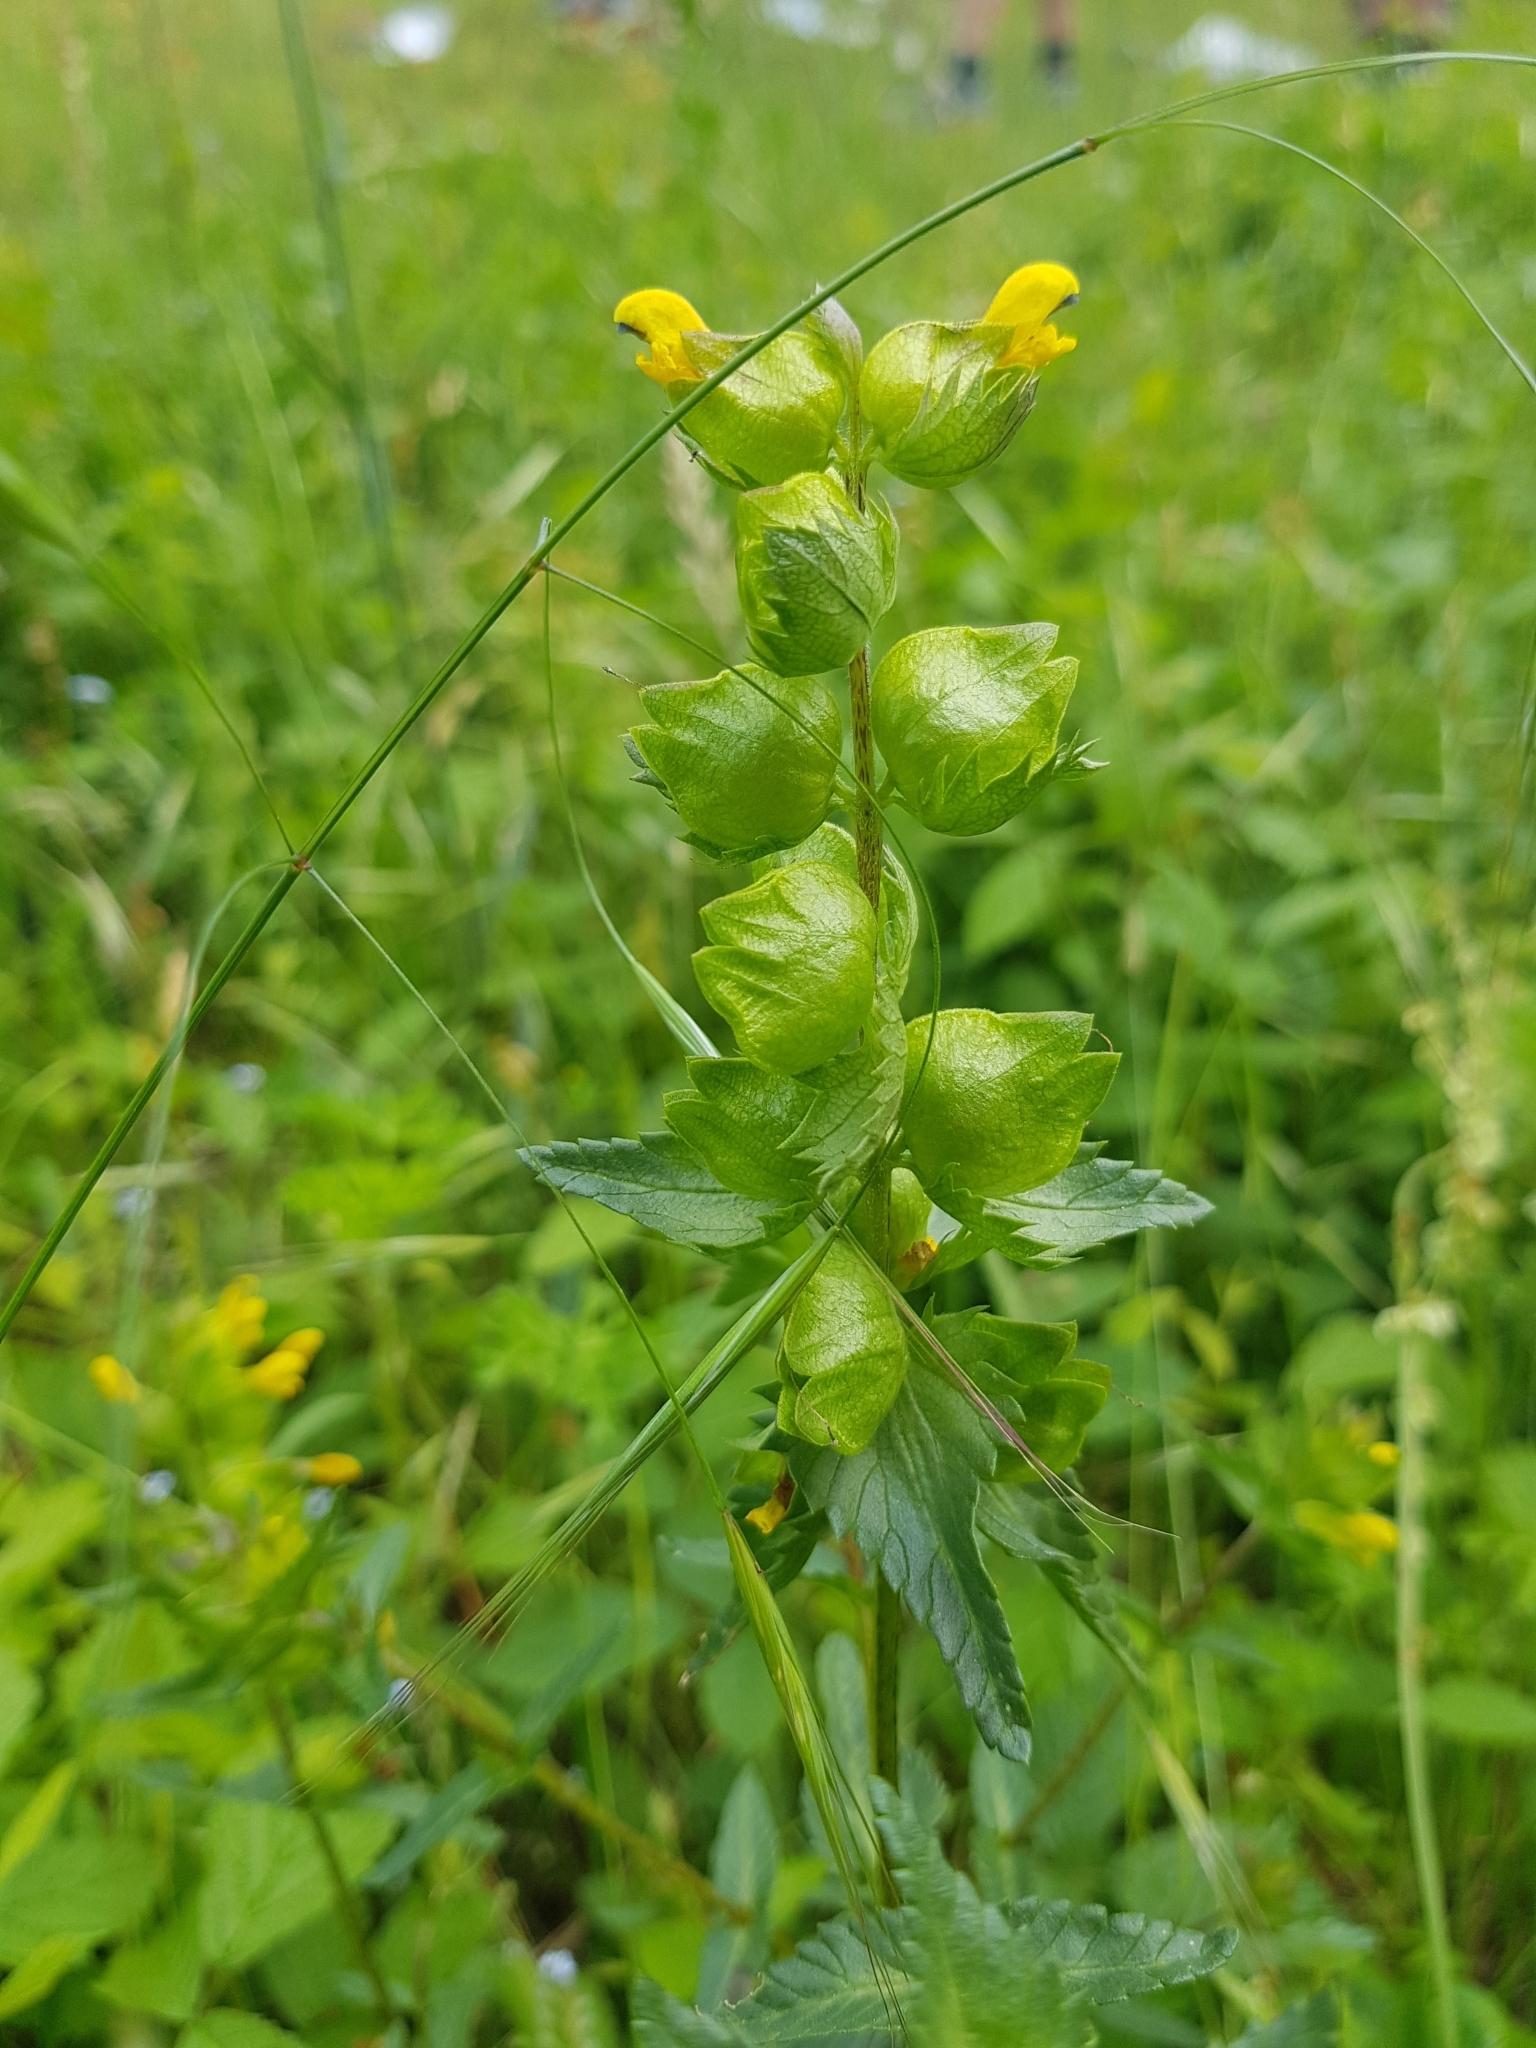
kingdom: Plantae
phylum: Tracheophyta
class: Magnoliopsida
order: Lamiales
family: Orobanchaceae
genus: Rhinanthus
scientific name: Rhinanthus minor
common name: Yellow-rattle
